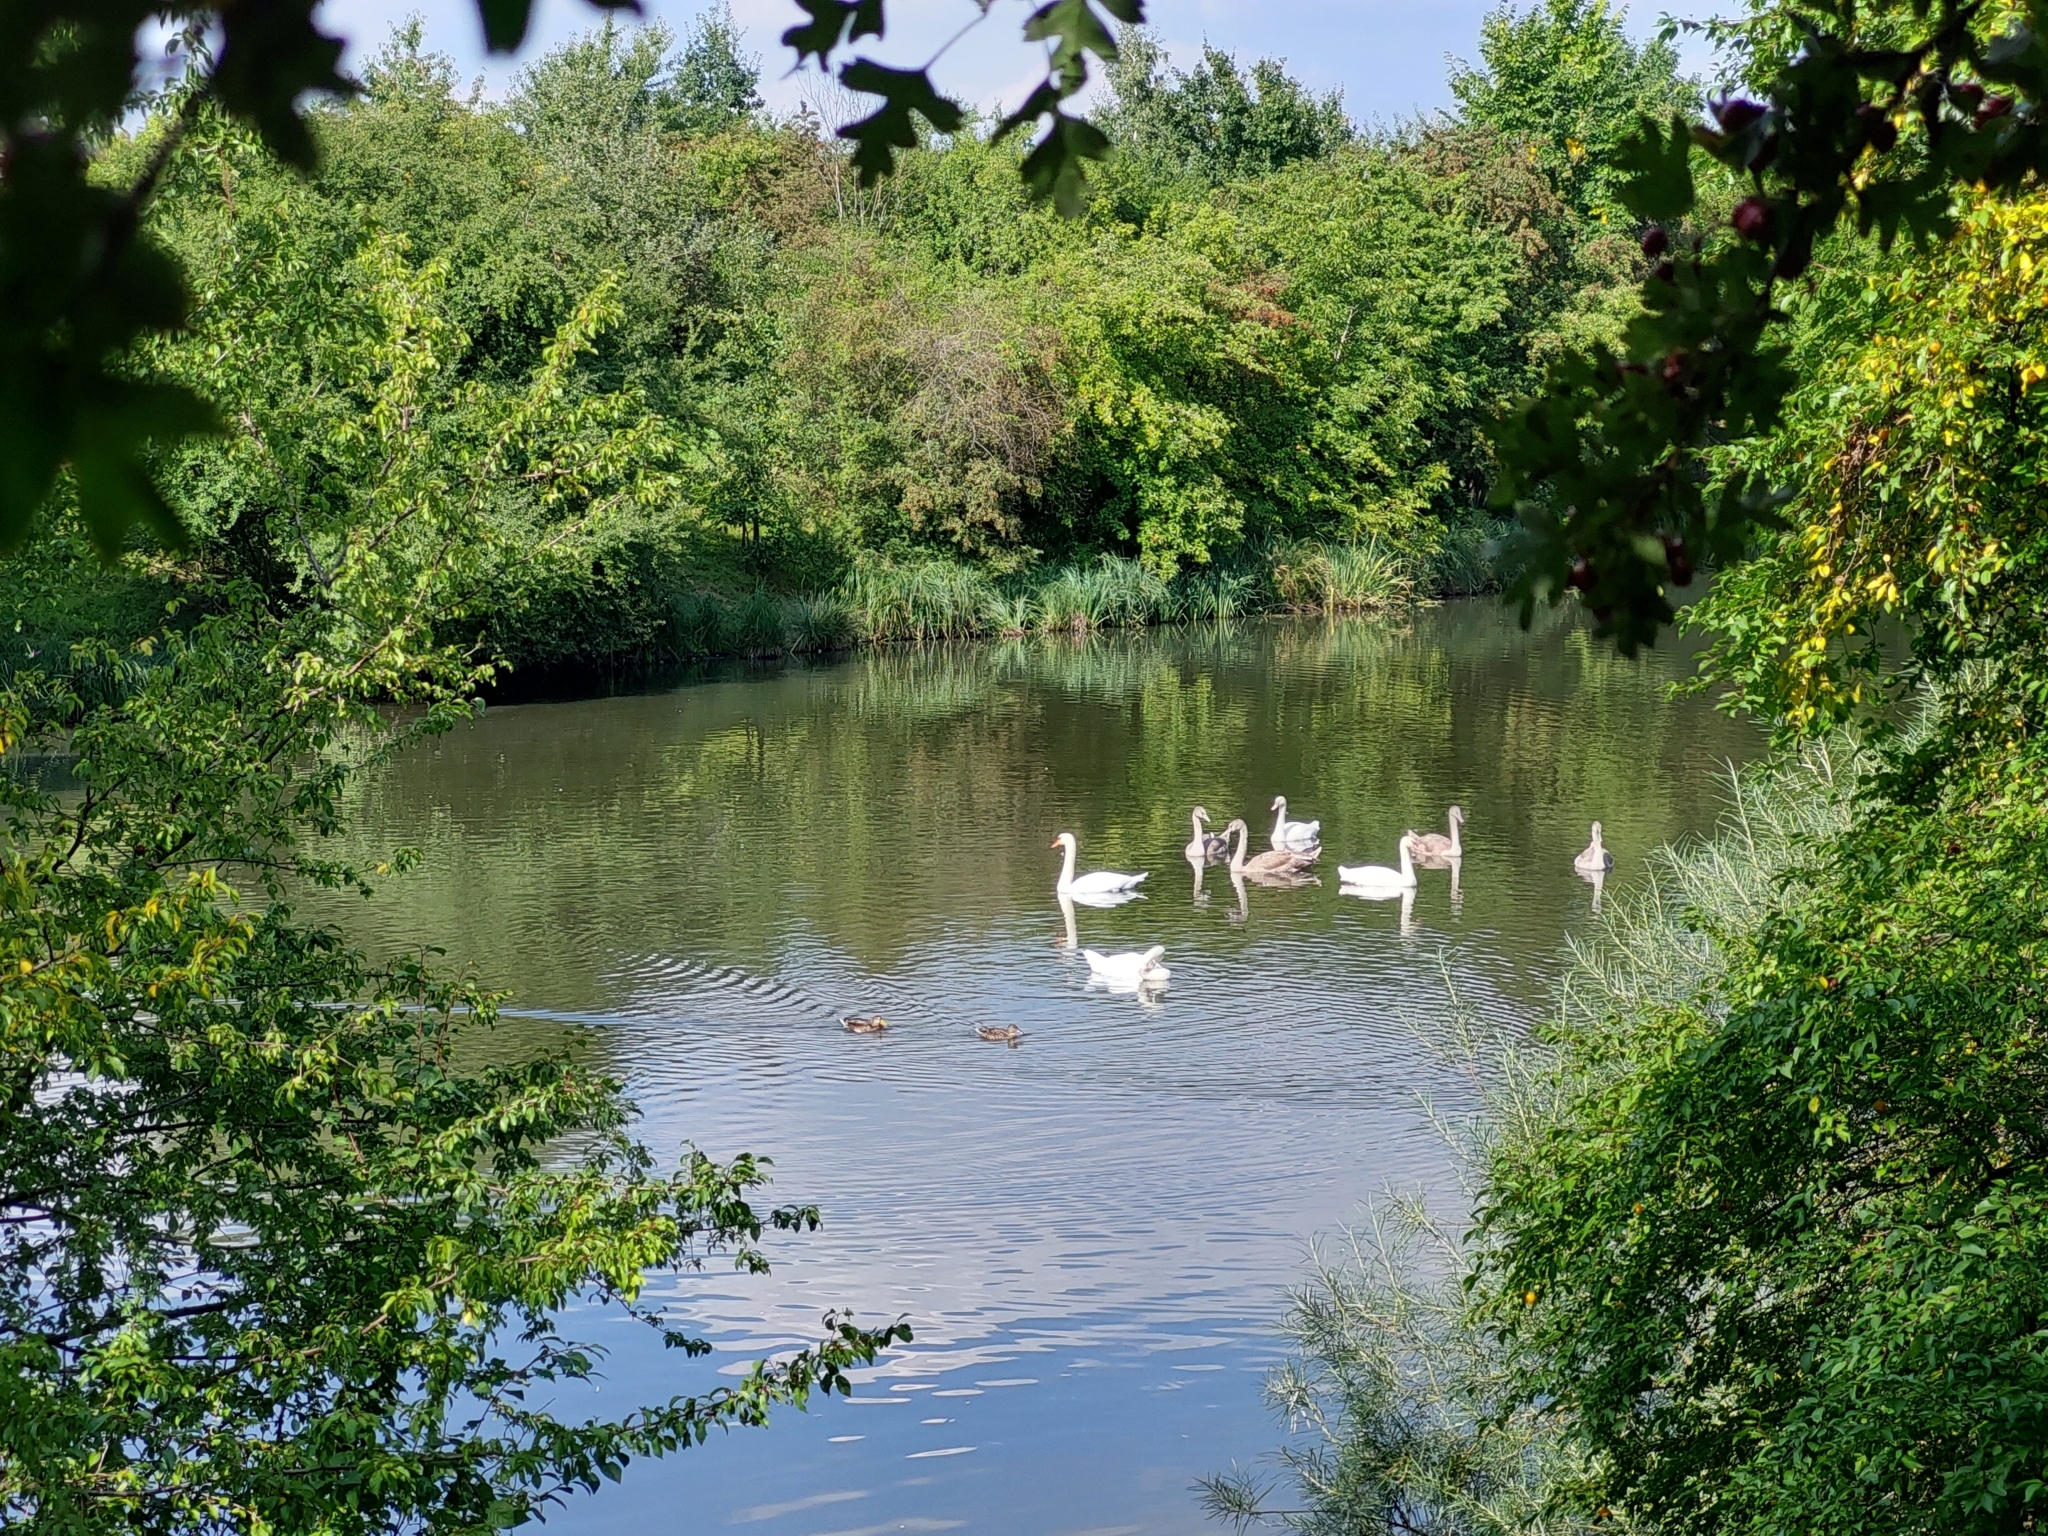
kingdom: Animalia
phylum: Chordata
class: Aves
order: Anseriformes
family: Anatidae
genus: Cygnus
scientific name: Cygnus olor
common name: Mute swan
